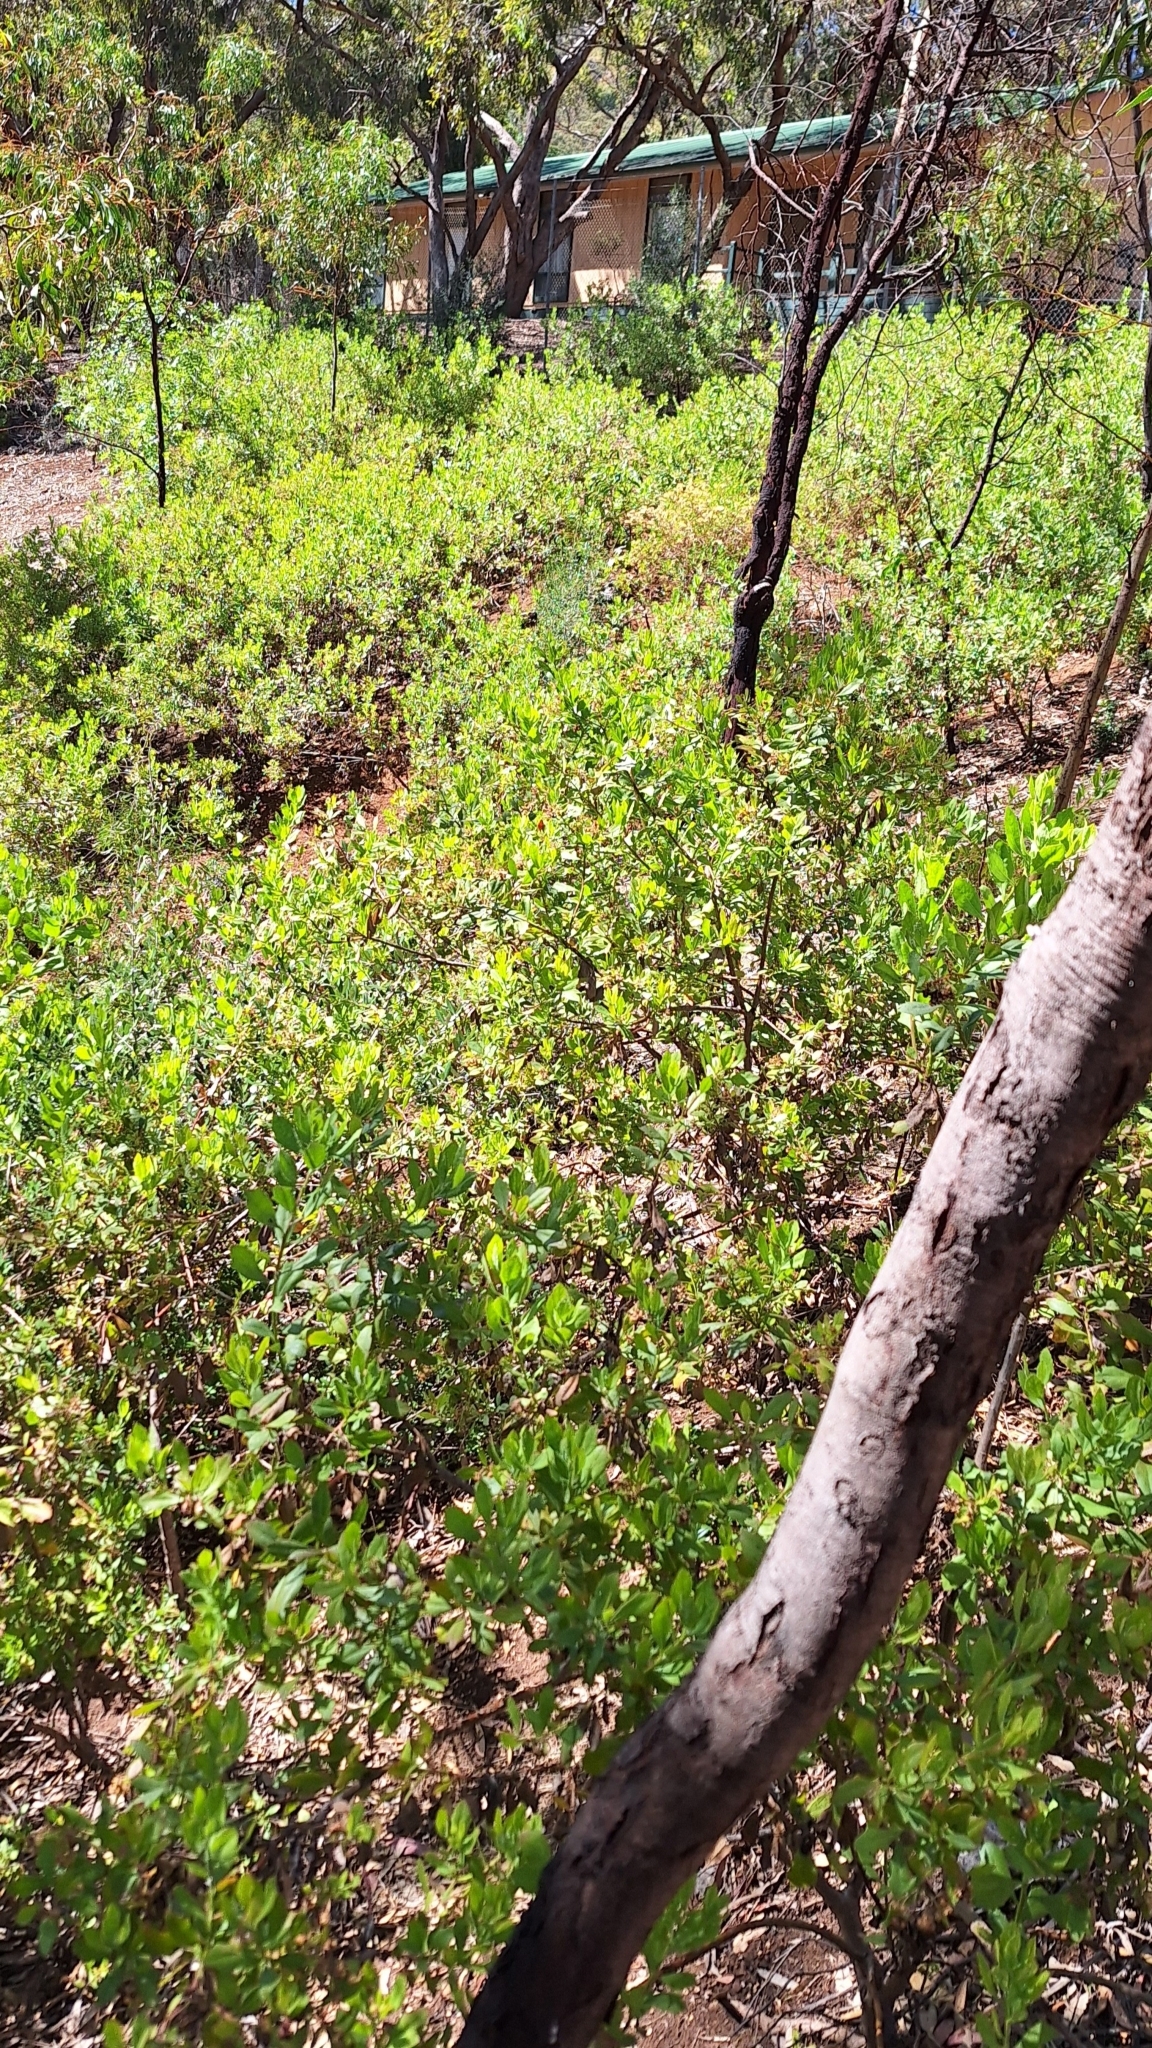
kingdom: Plantae
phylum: Tracheophyta
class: Magnoliopsida
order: Asterales
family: Asteraceae
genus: Osteospermum
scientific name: Osteospermum moniliferum
